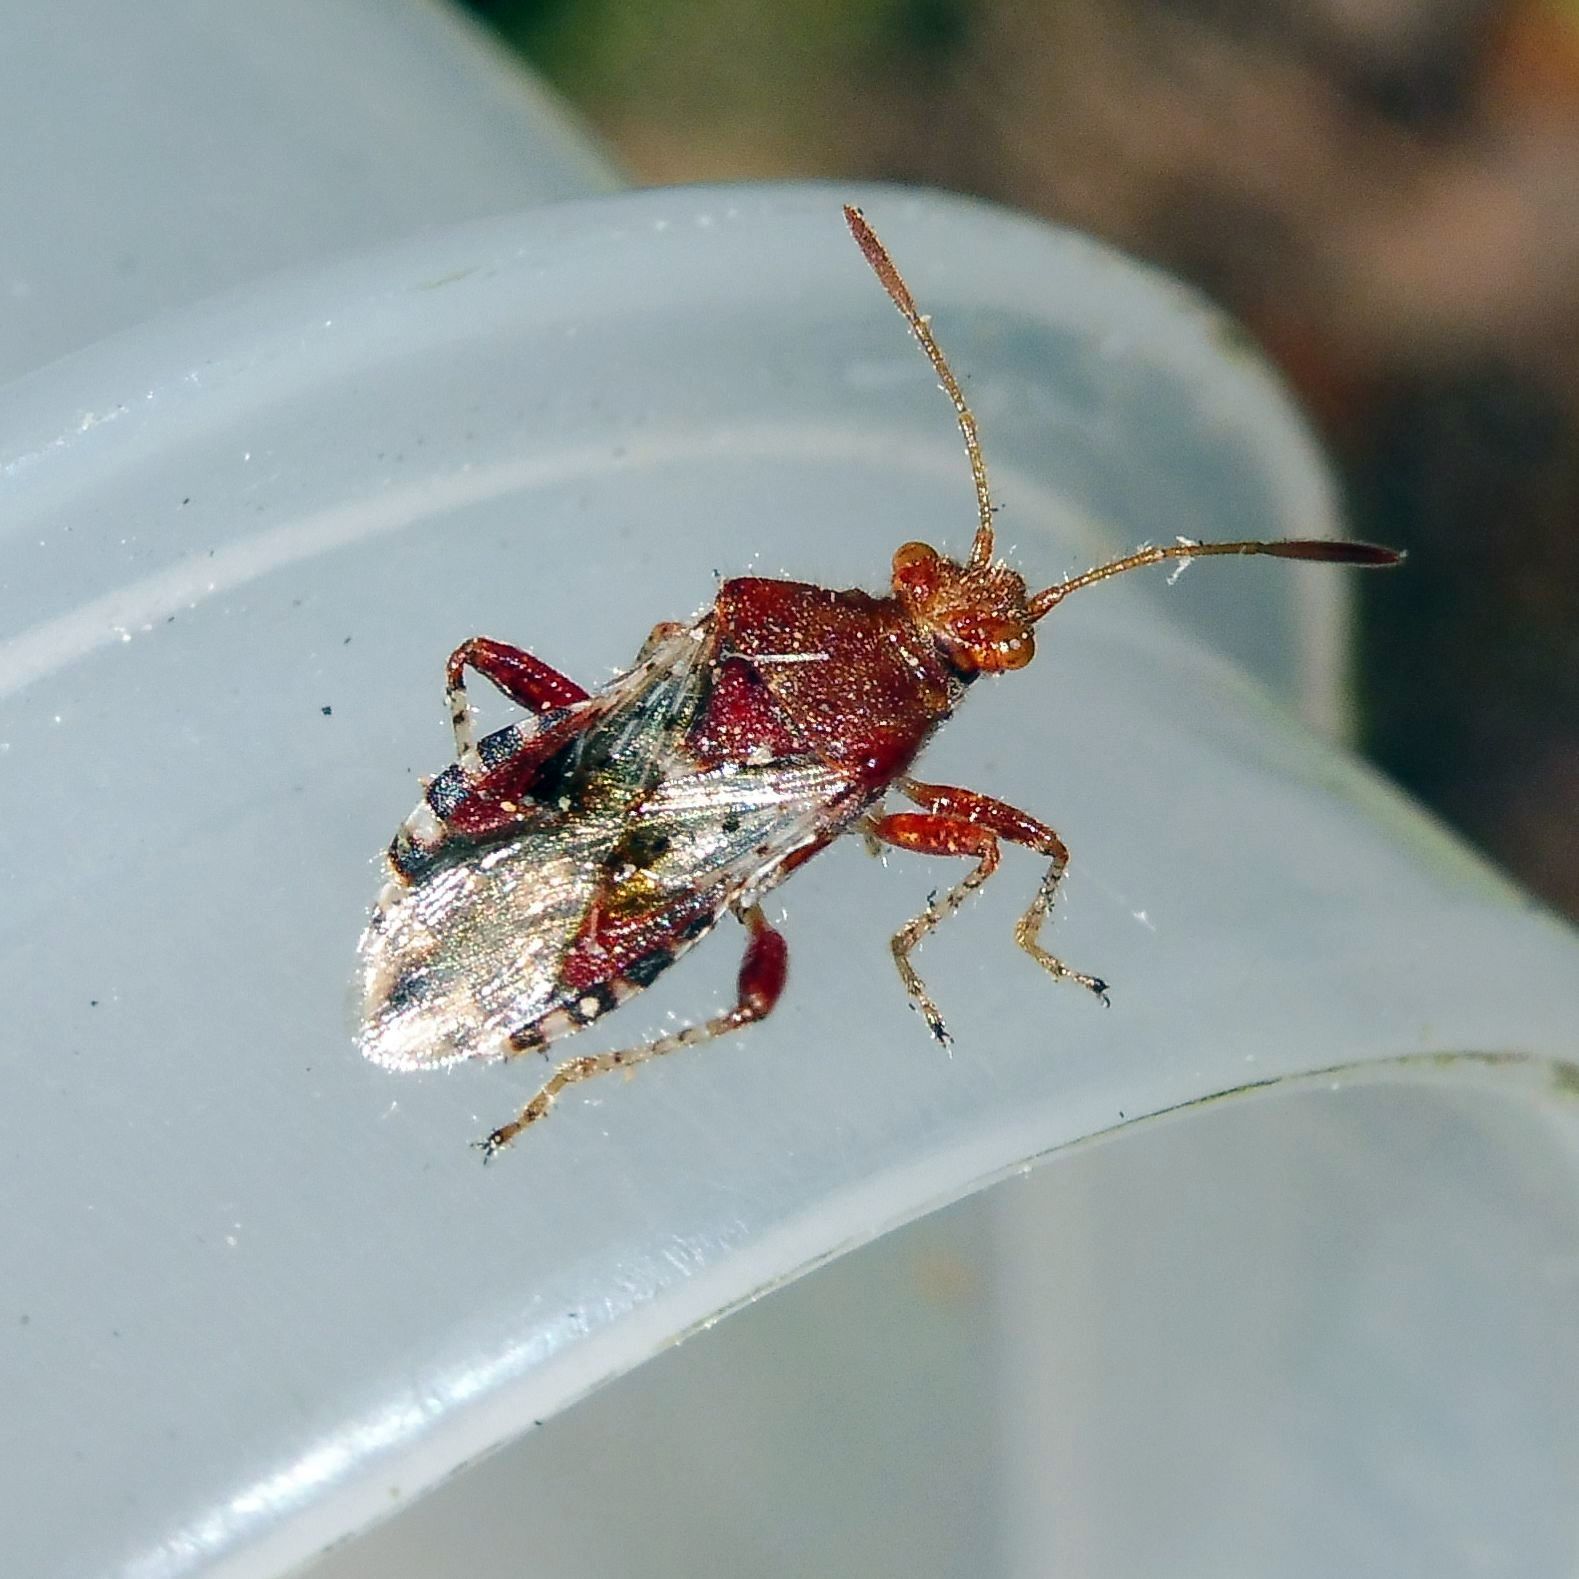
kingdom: Animalia
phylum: Arthropoda
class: Insecta
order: Hemiptera
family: Rhopalidae
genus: Rhopalus
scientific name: Rhopalus subrufus
